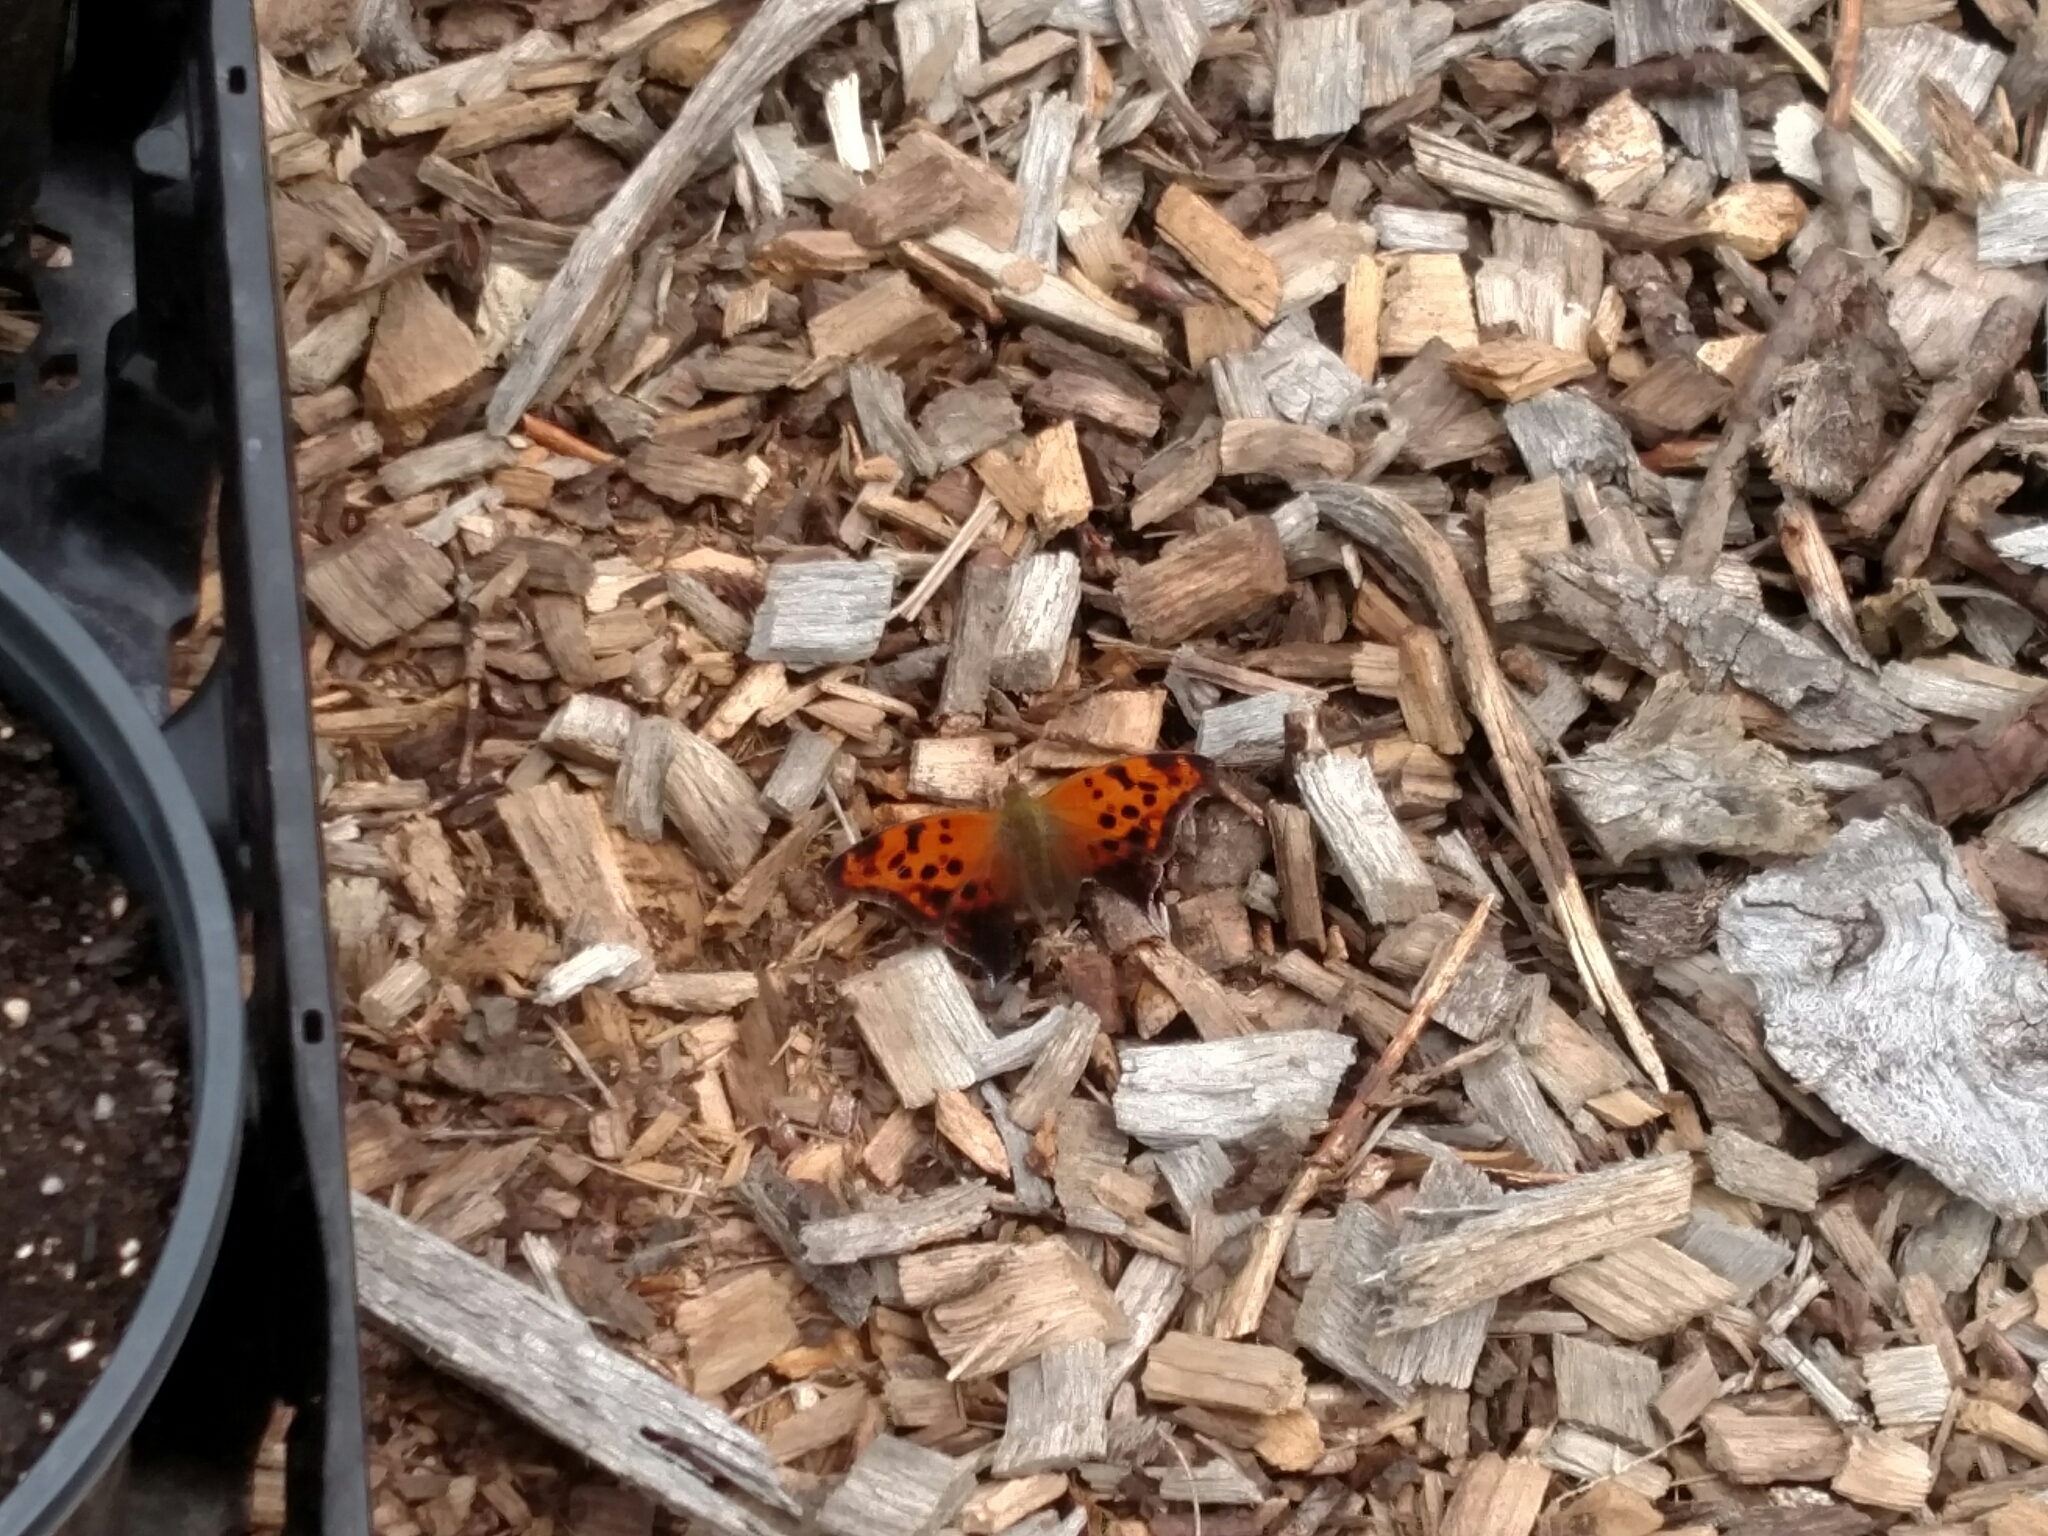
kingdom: Animalia
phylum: Arthropoda
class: Insecta
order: Lepidoptera
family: Nymphalidae
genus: Polygonia
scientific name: Polygonia interrogationis
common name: Question mark
